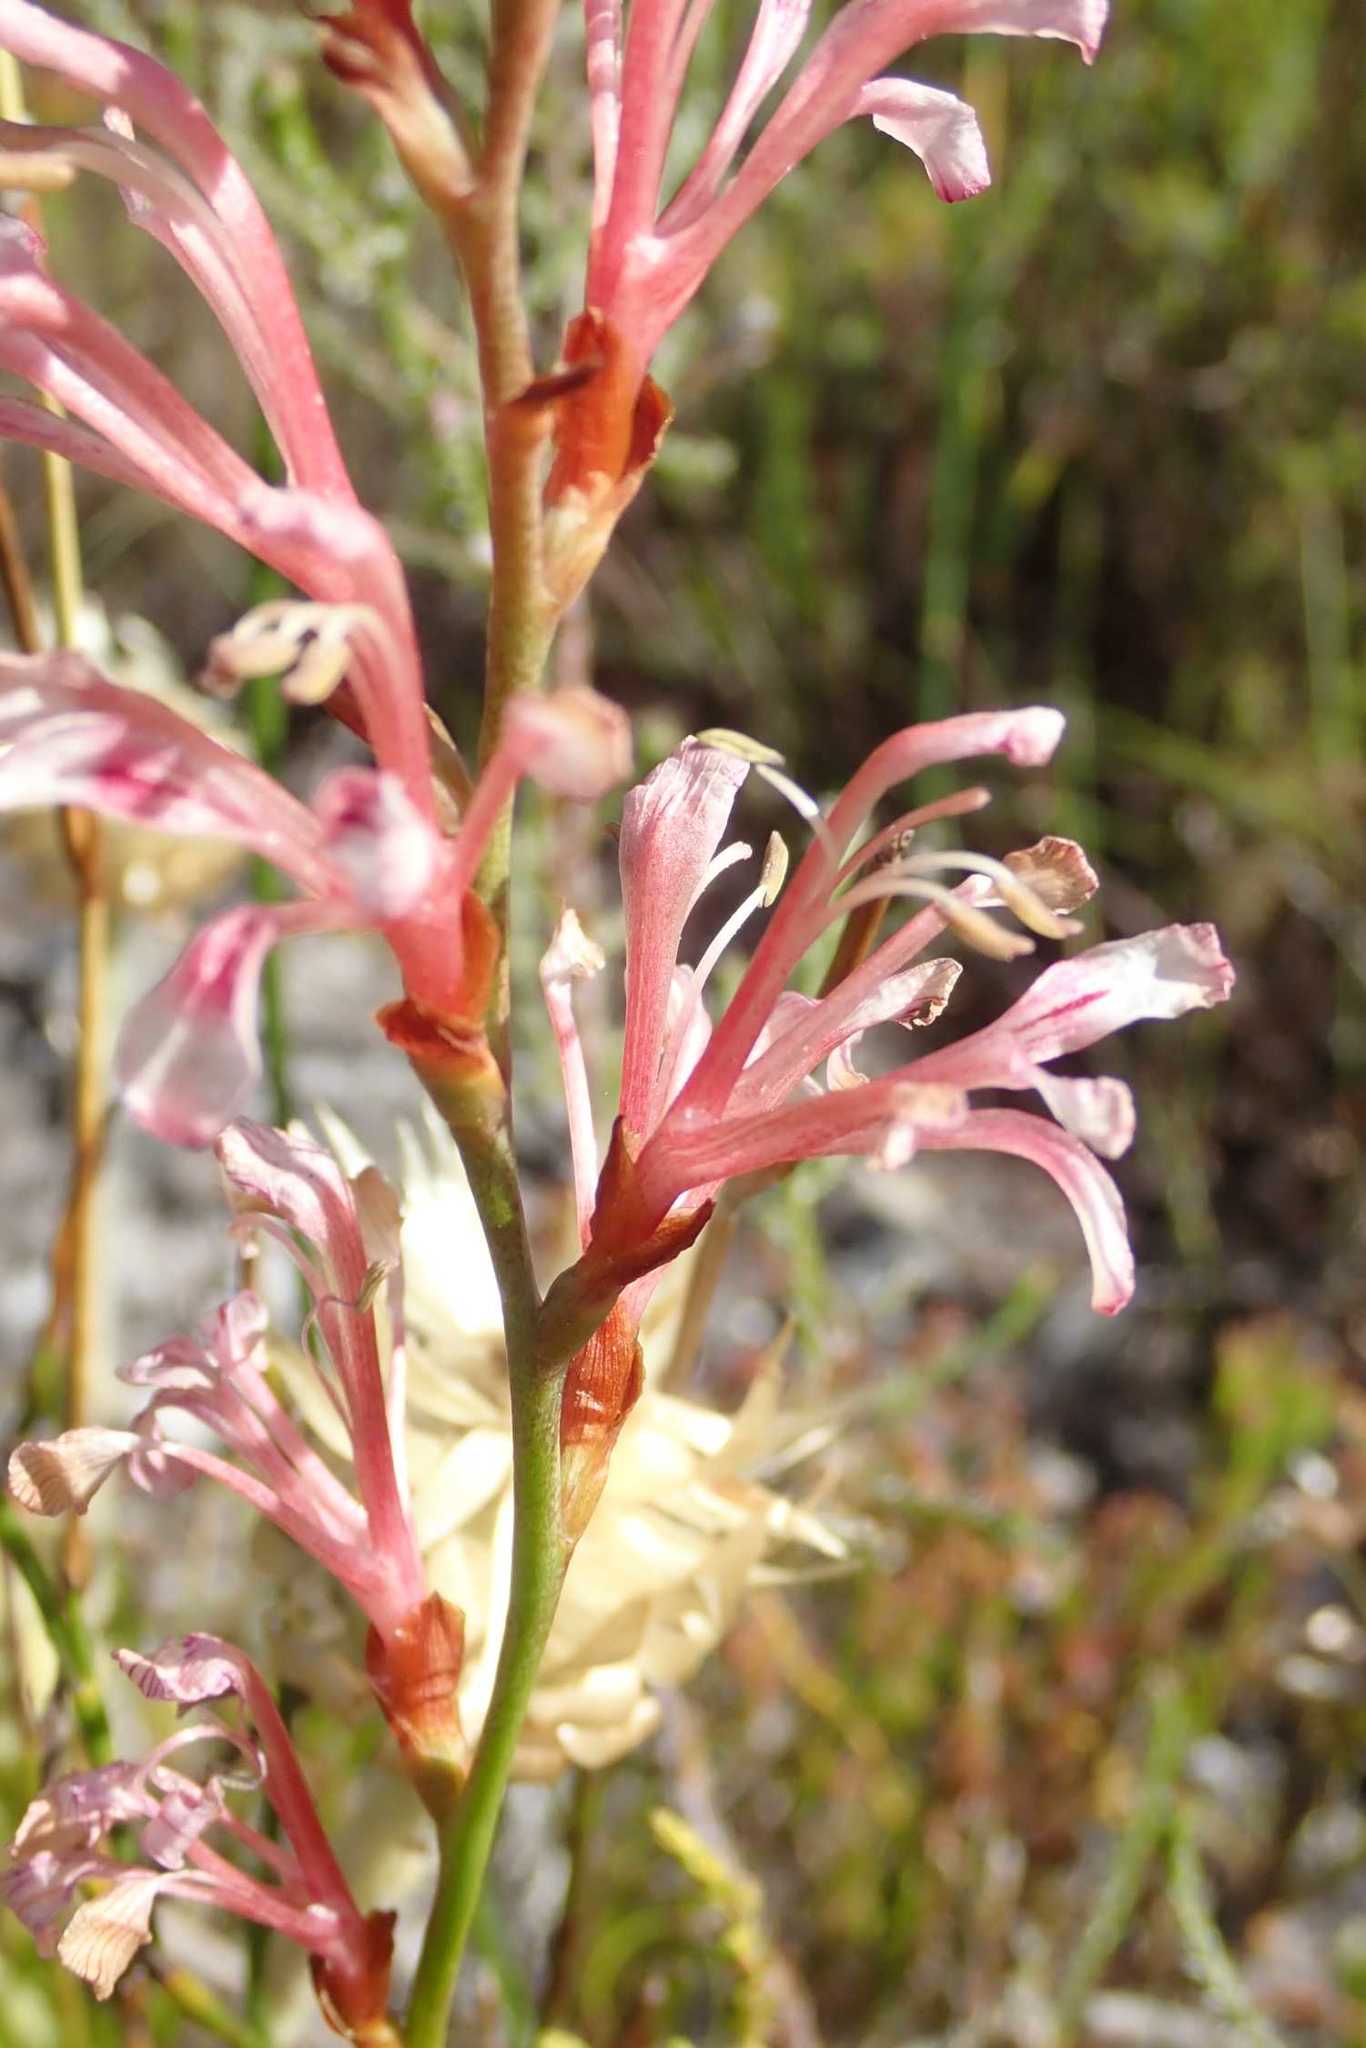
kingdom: Plantae
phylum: Tracheophyta
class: Liliopsida
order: Asparagales
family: Iridaceae
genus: Tritoniopsis
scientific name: Tritoniopsis dodii
